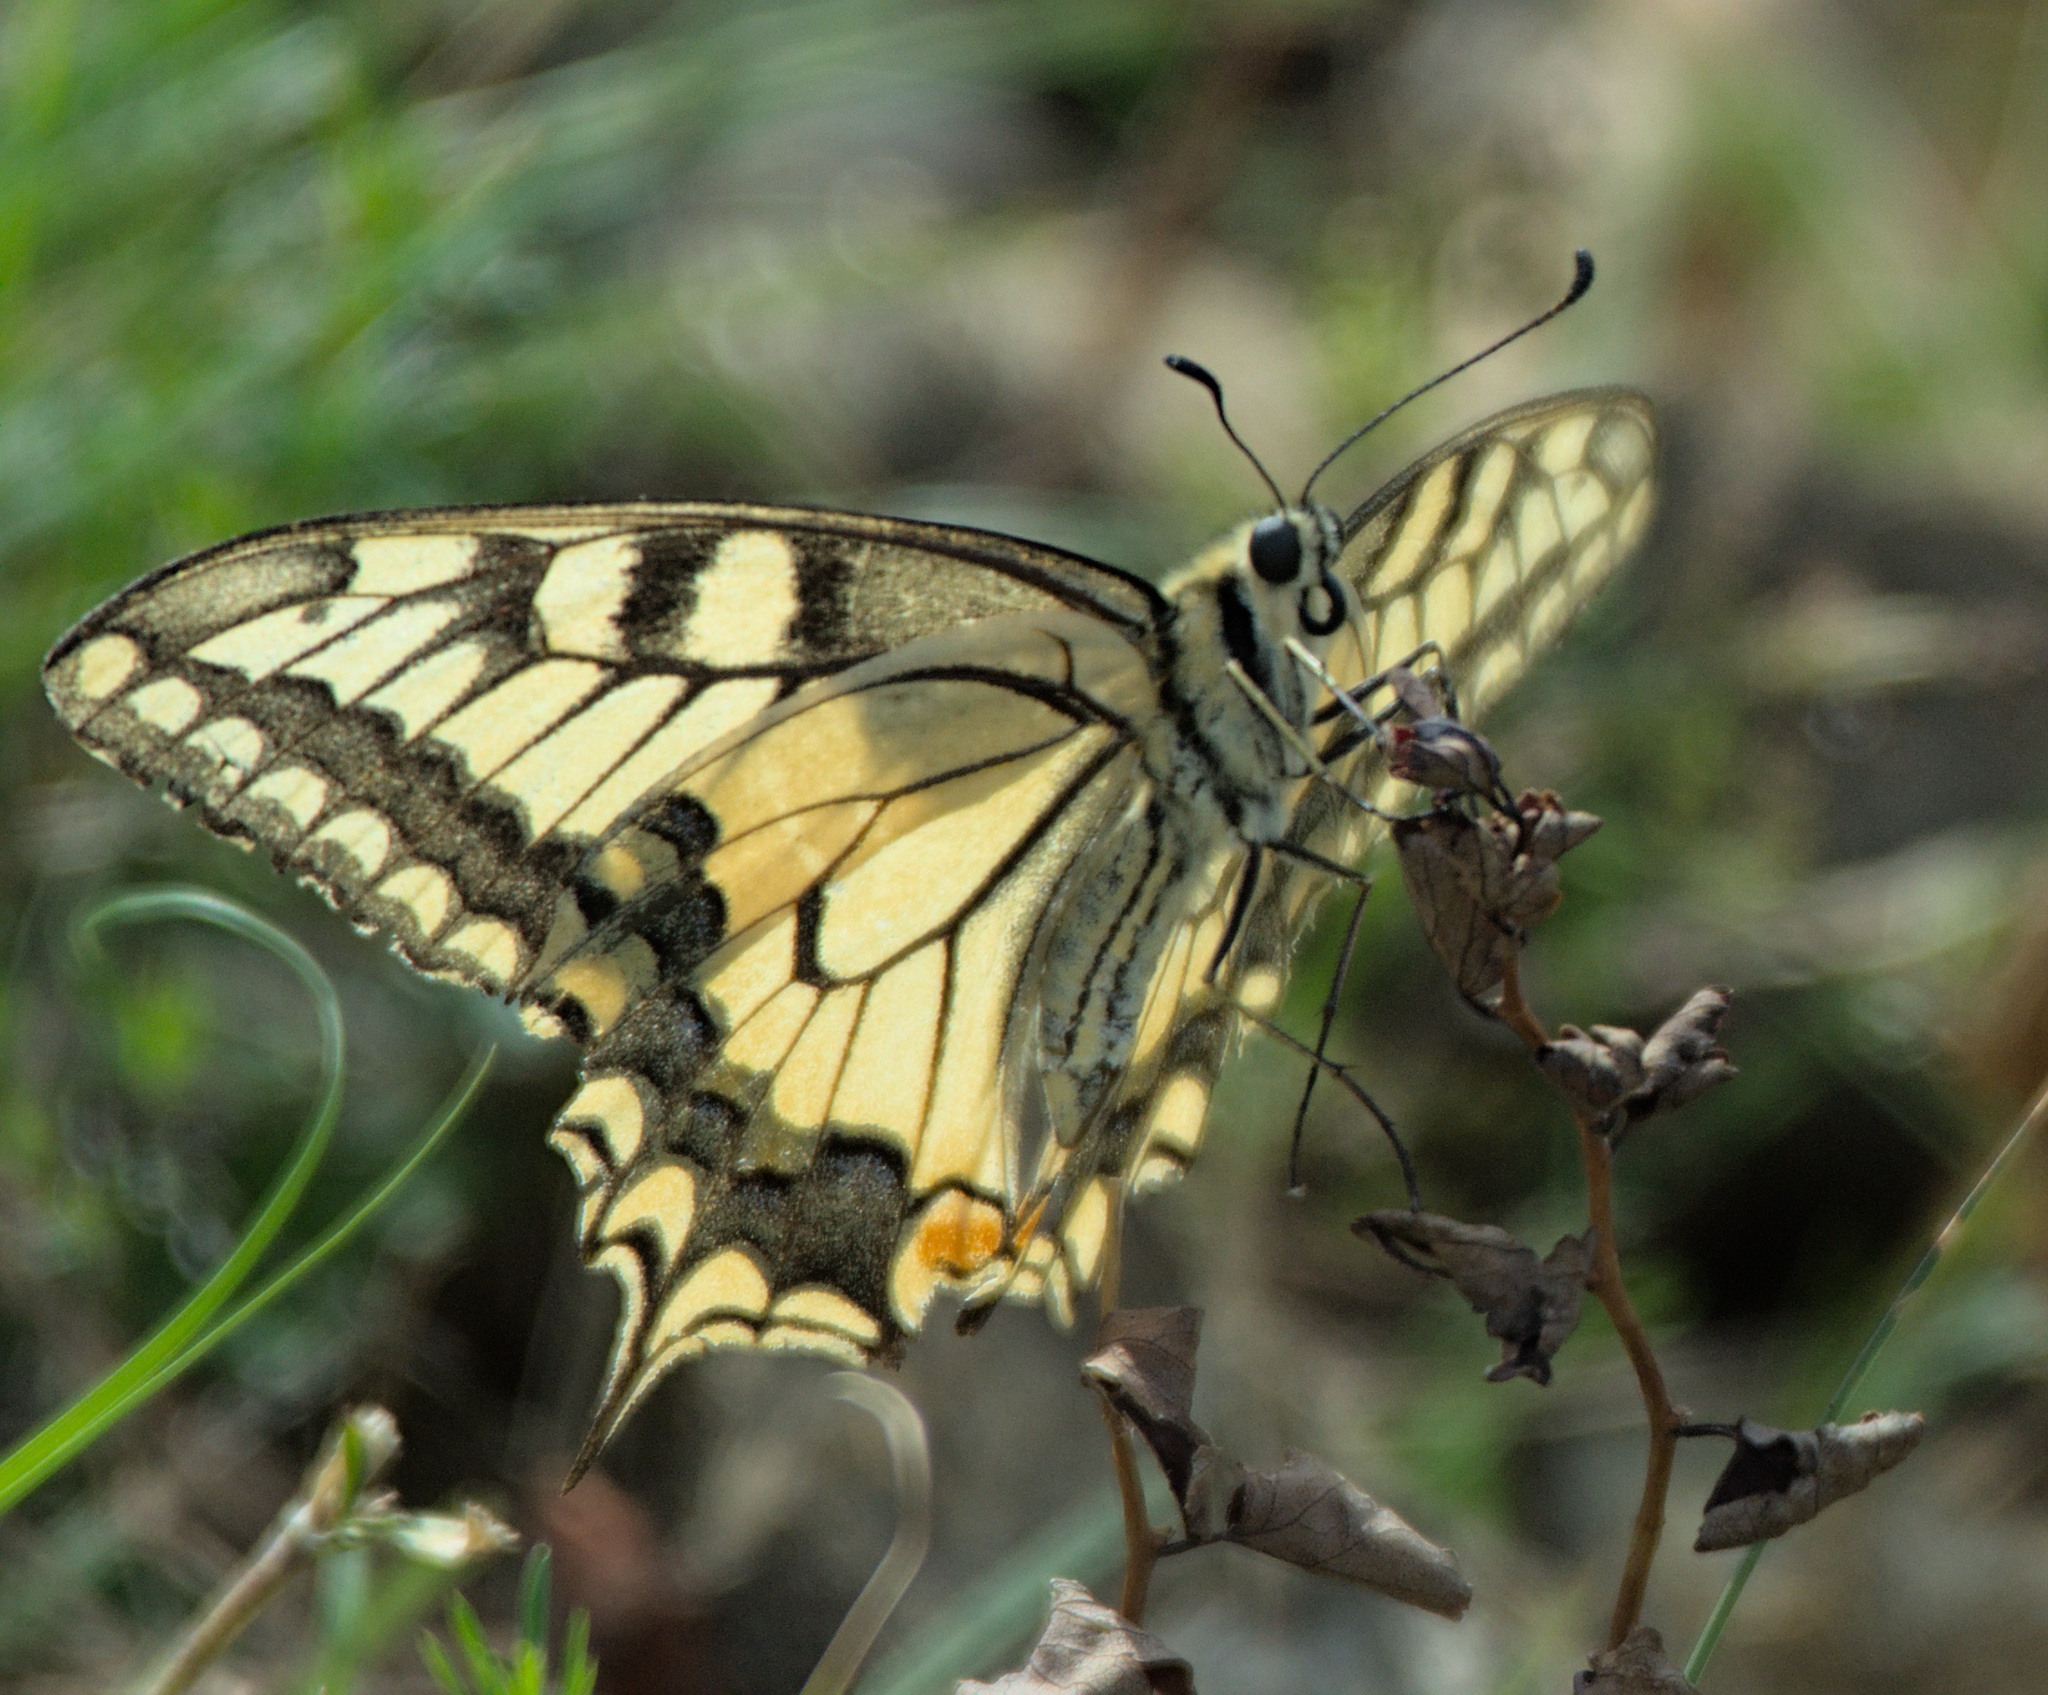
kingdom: Animalia
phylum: Arthropoda
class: Insecta
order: Lepidoptera
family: Papilionidae
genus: Papilio
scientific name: Papilio machaon
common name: Swallowtail
